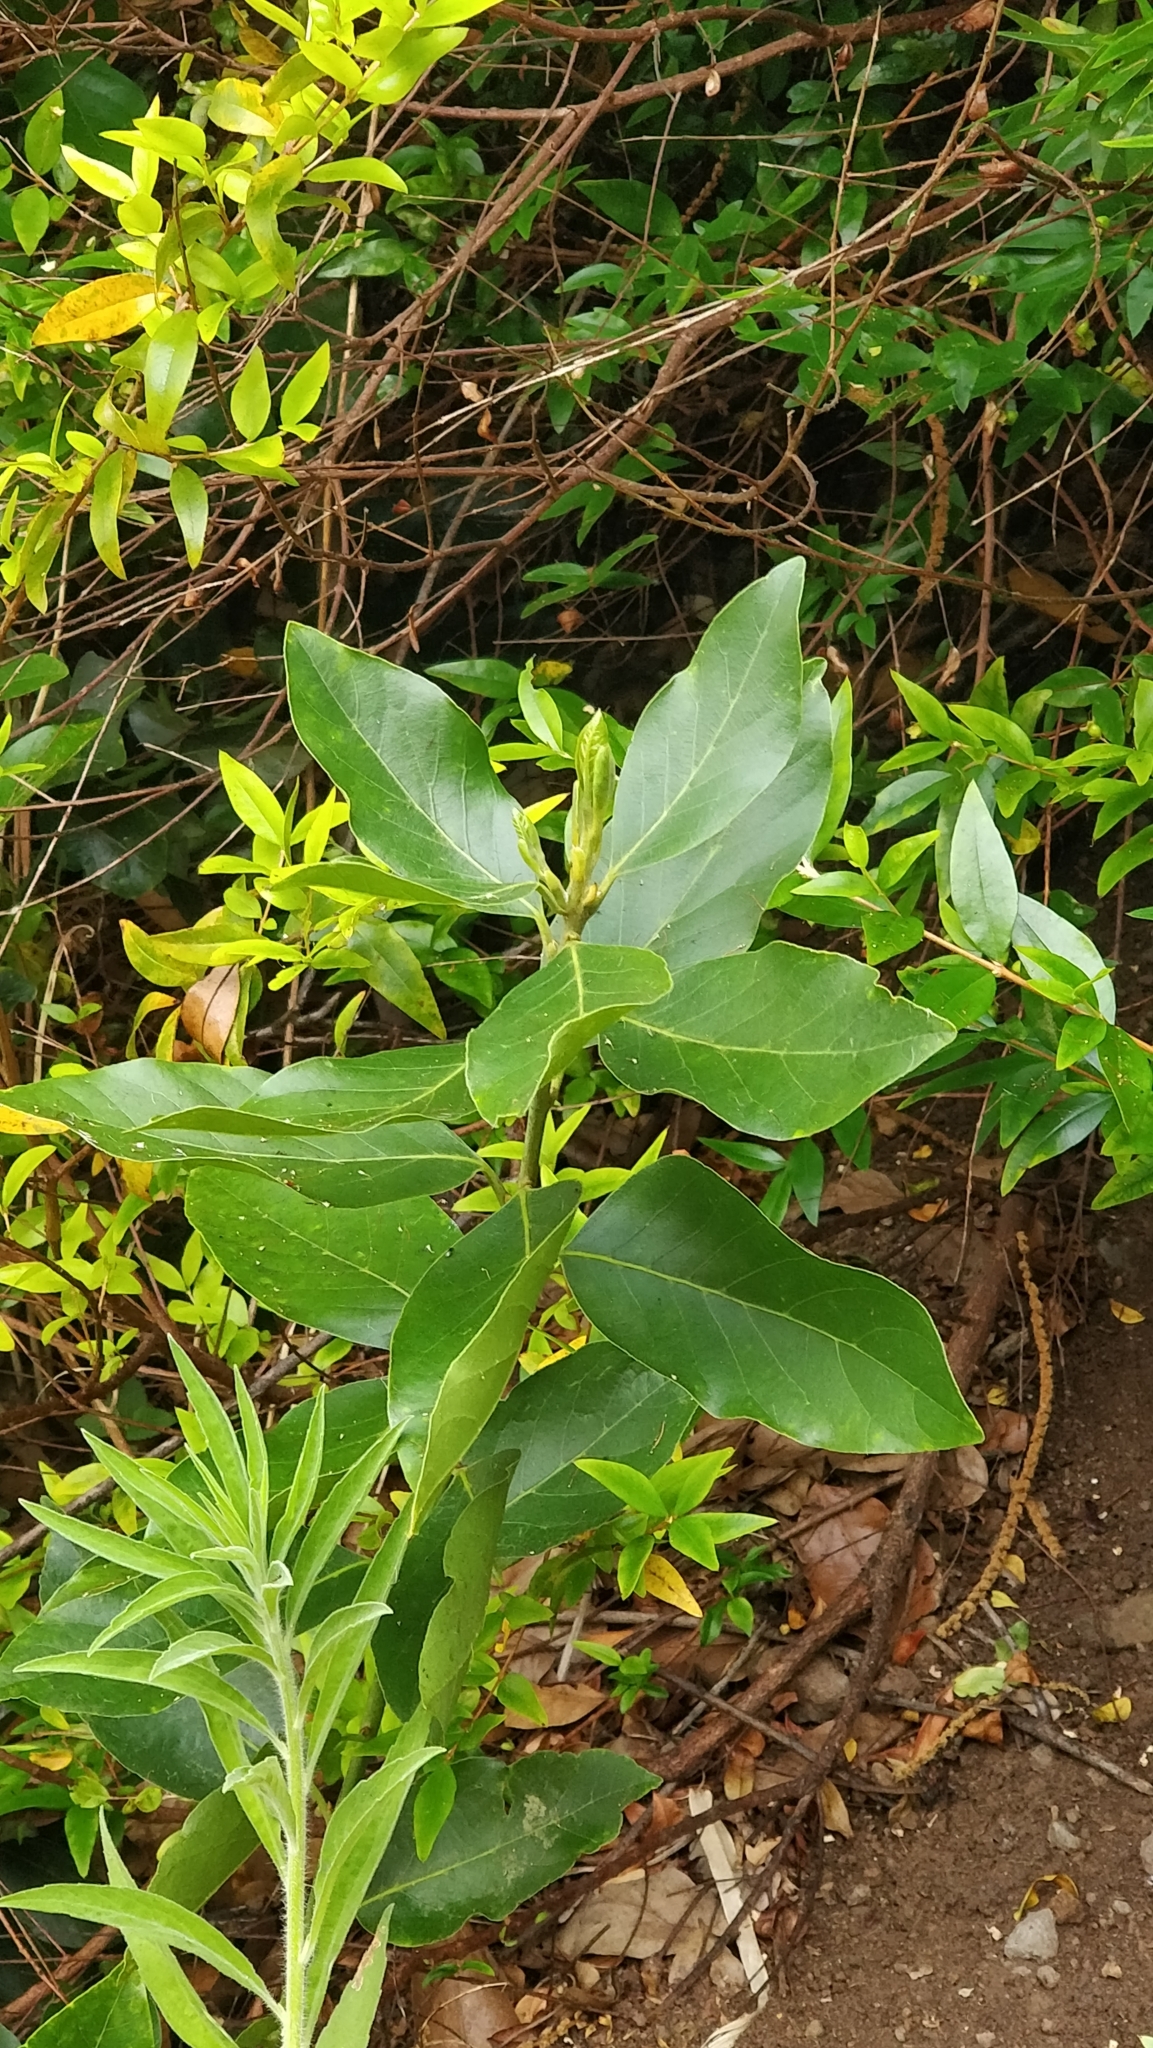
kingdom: Plantae
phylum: Tracheophyta
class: Magnoliopsida
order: Laurales
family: Lauraceae
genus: Laurus
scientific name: Laurus novocanariensis
